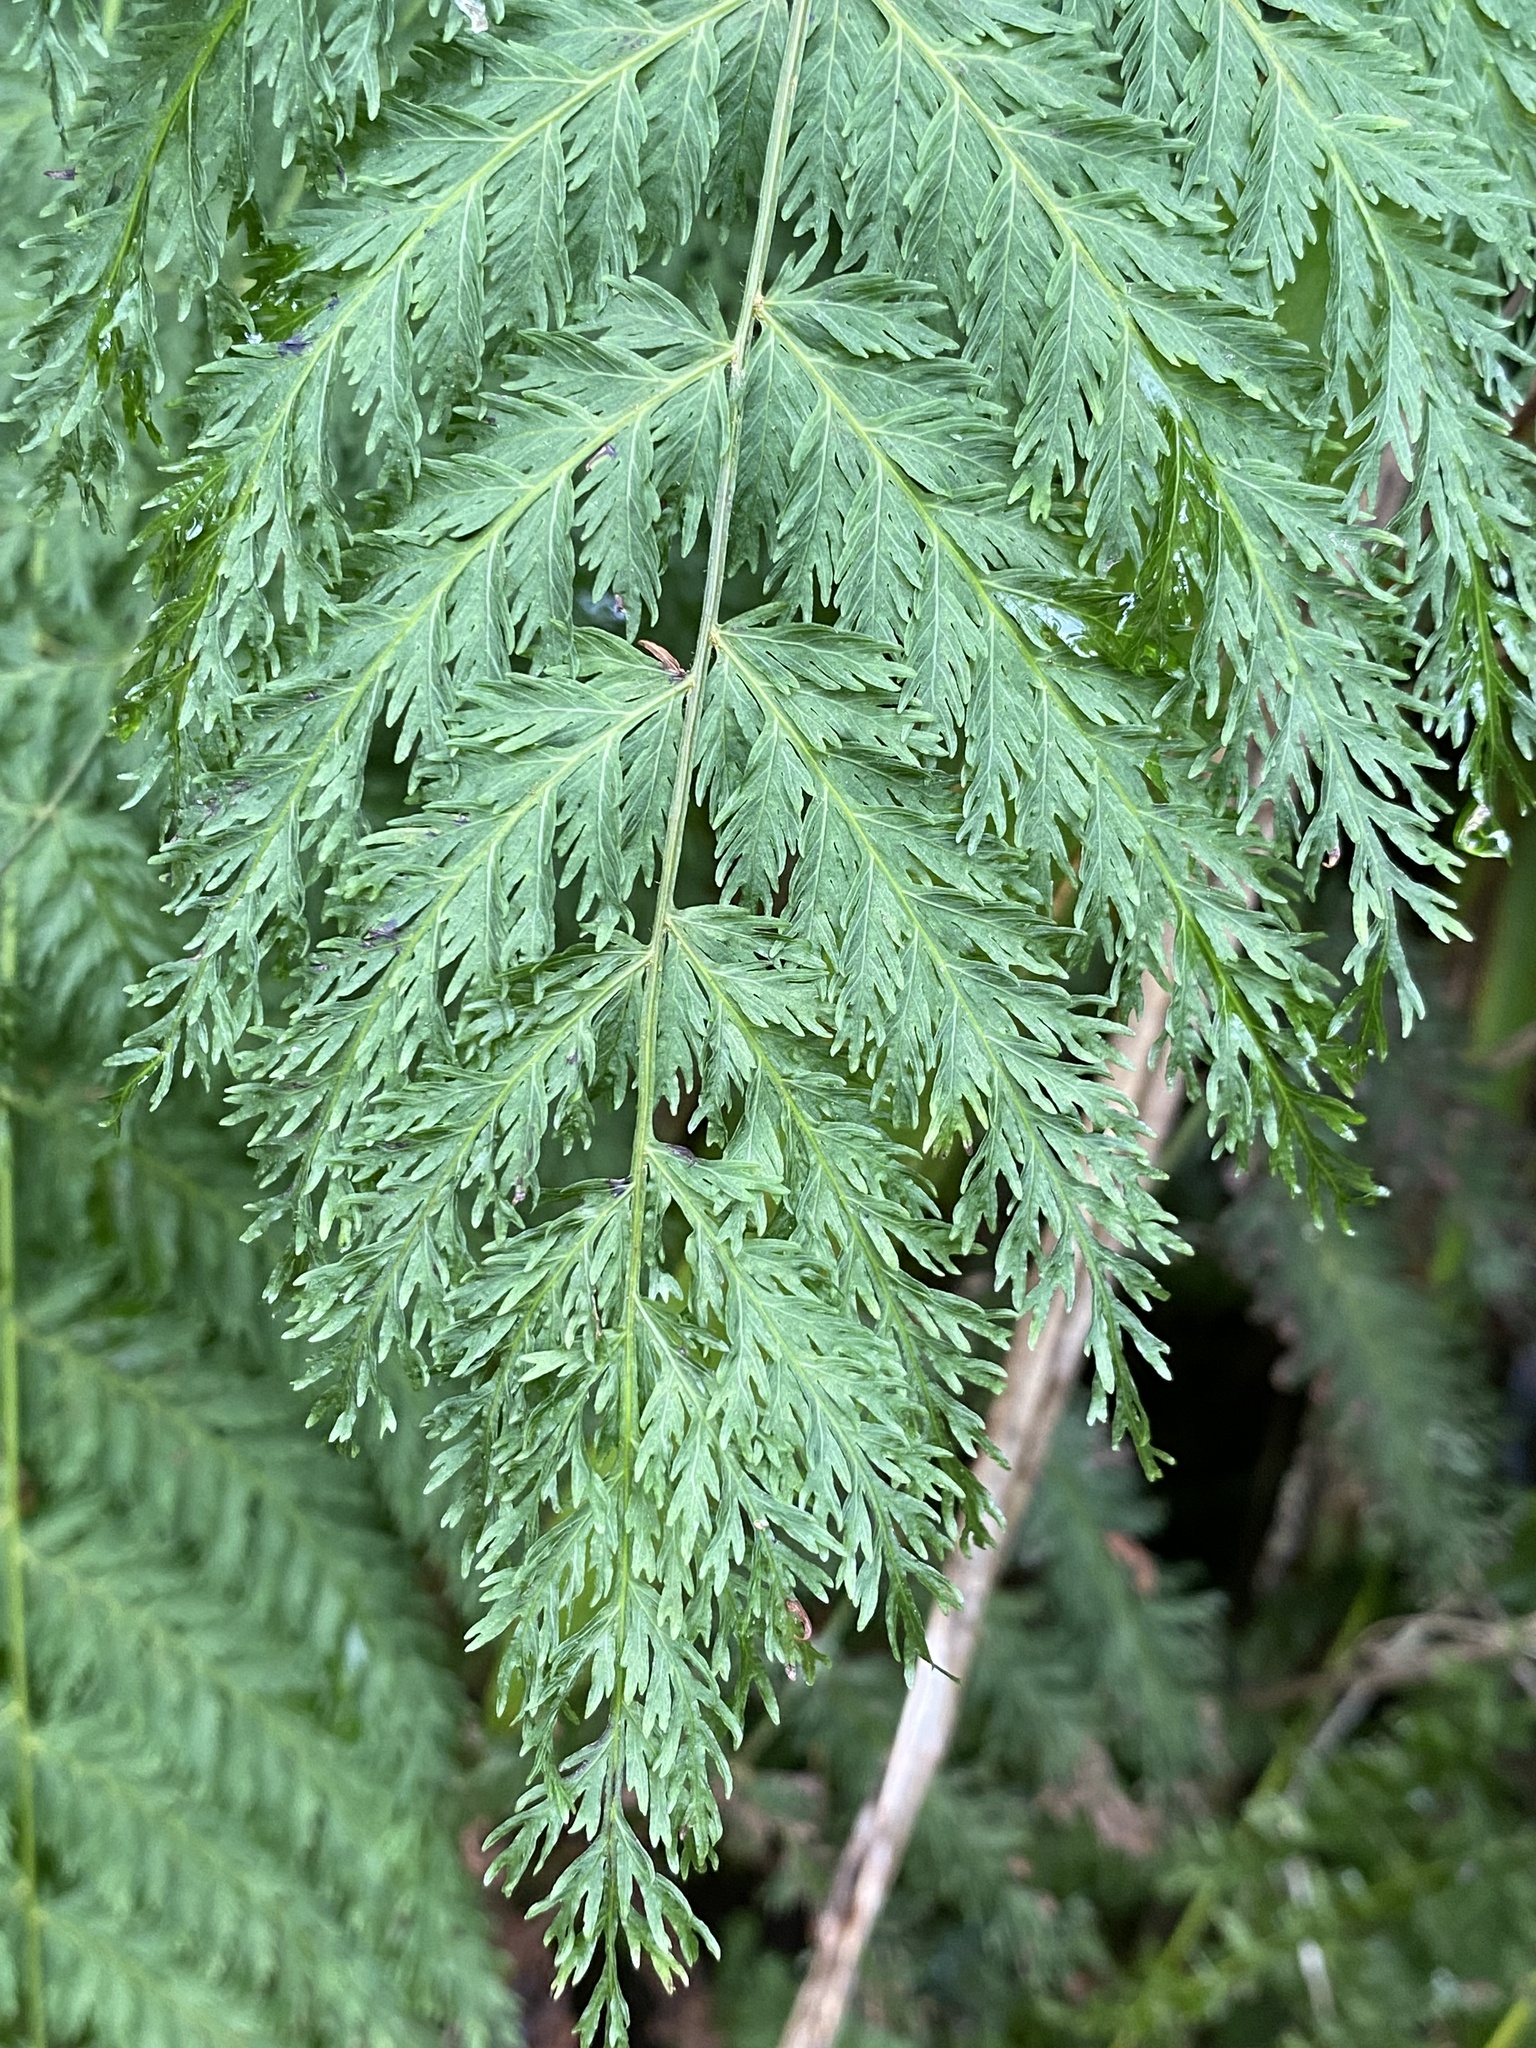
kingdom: Plantae
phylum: Tracheophyta
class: Polypodiopsida
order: Osmundales
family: Osmundaceae
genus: Leptopteris
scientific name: Leptopteris hymenophylloides
